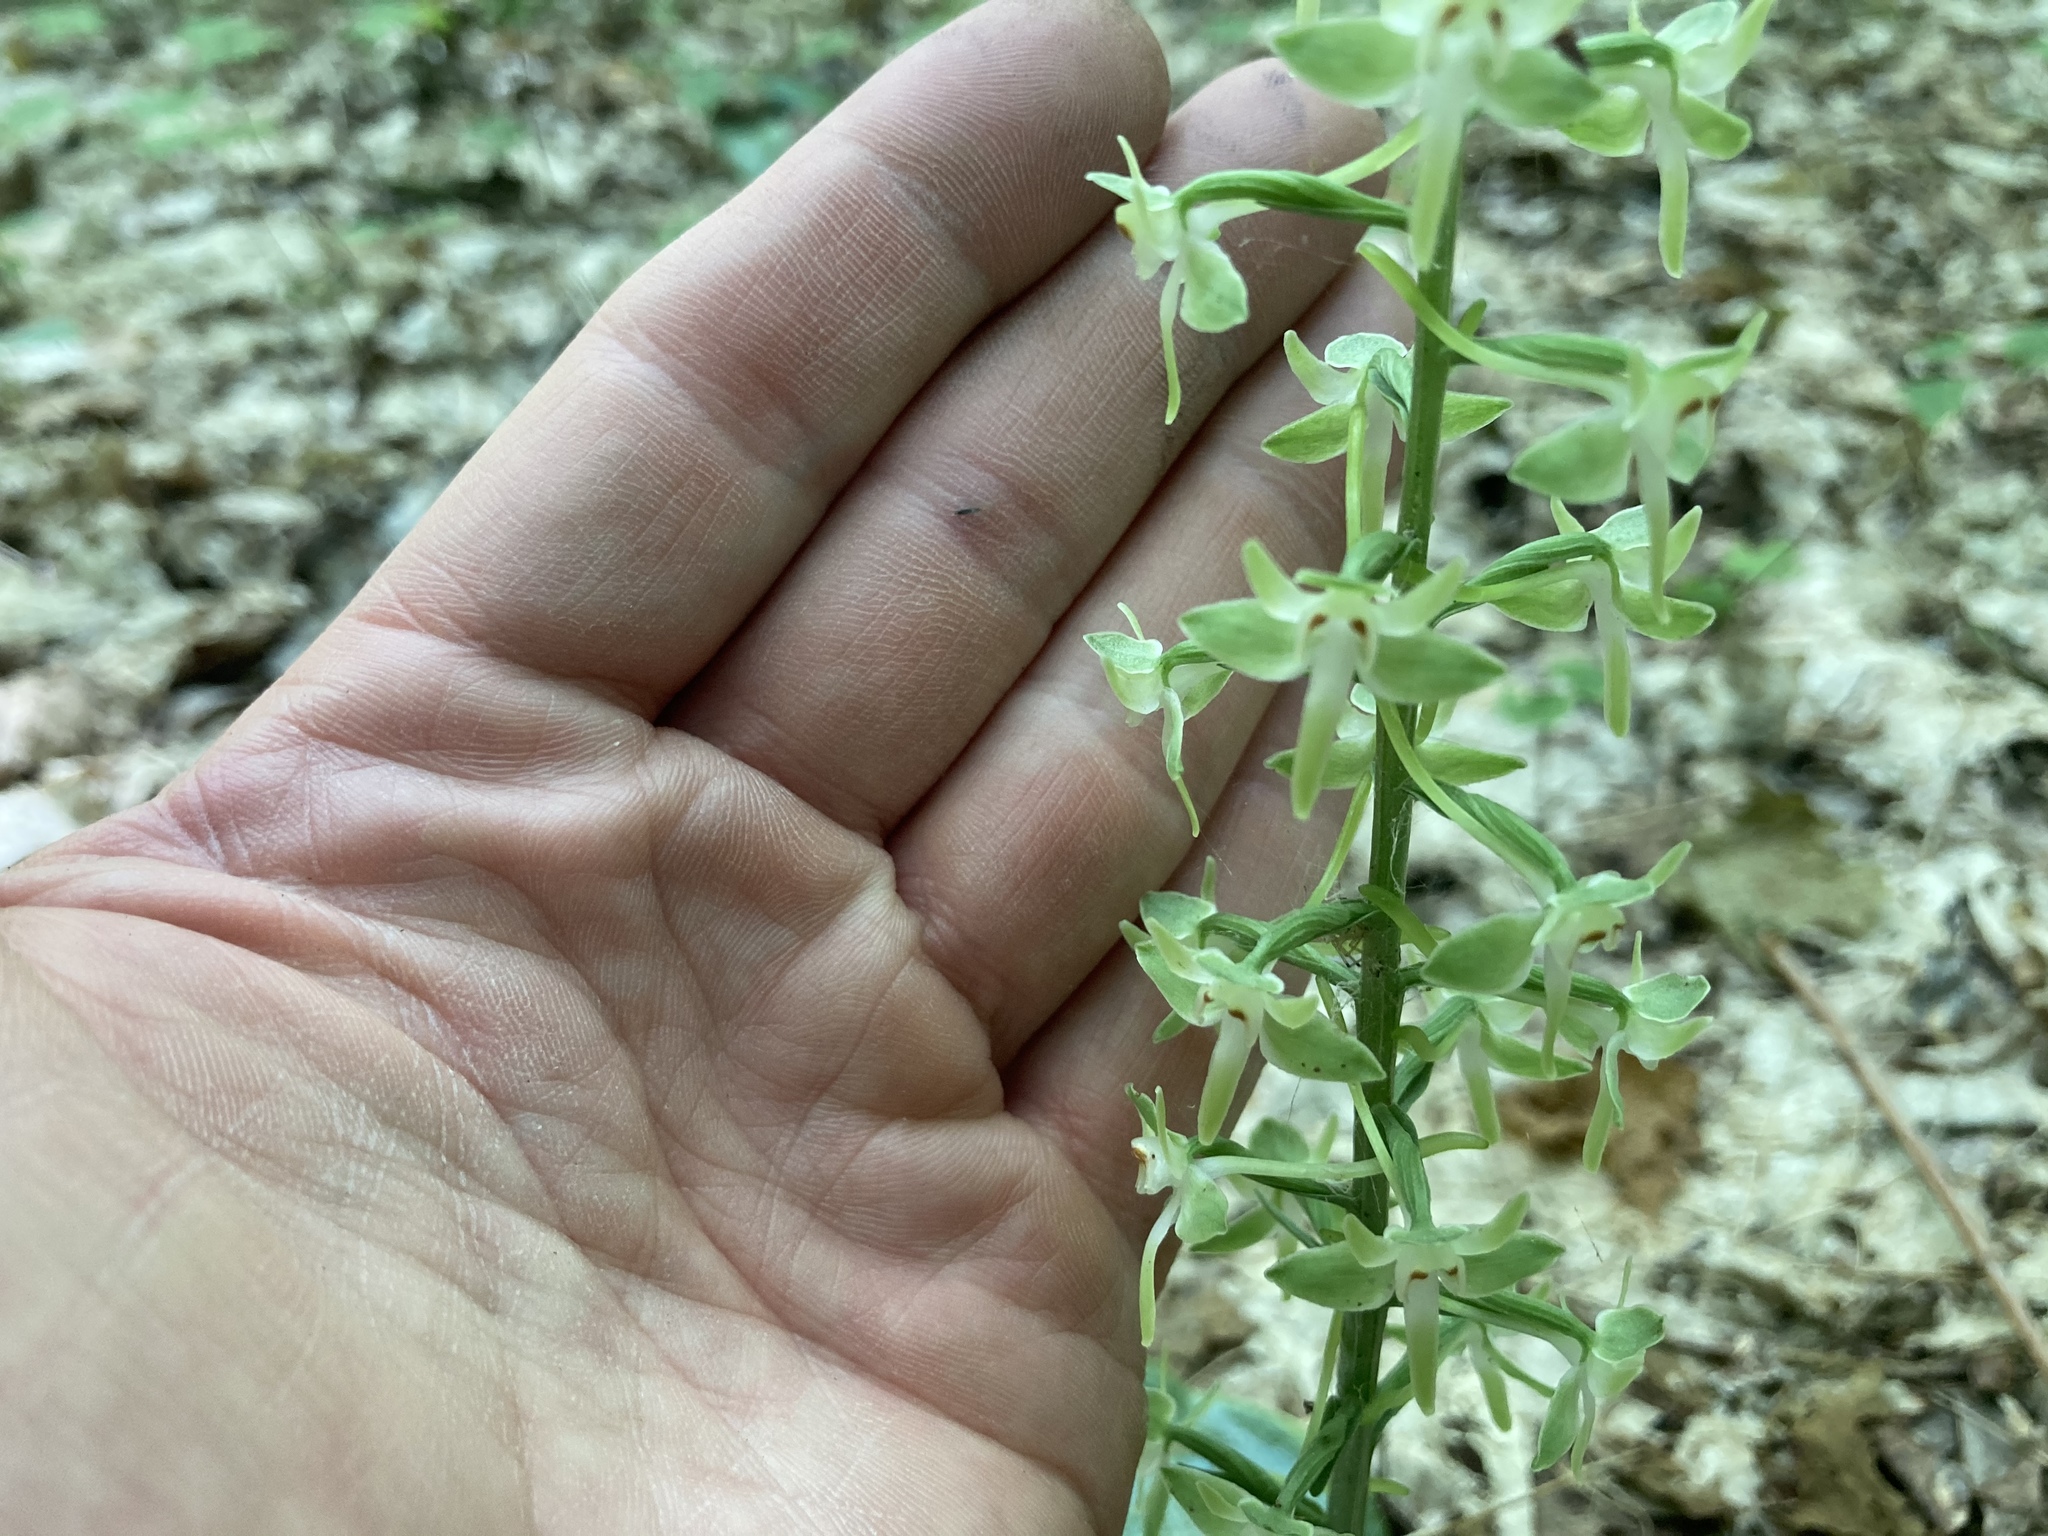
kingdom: Plantae
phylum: Tracheophyta
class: Liliopsida
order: Asparagales
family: Orchidaceae
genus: Platanthera
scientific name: Platanthera orbiculata
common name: Large round-leaved orchid
